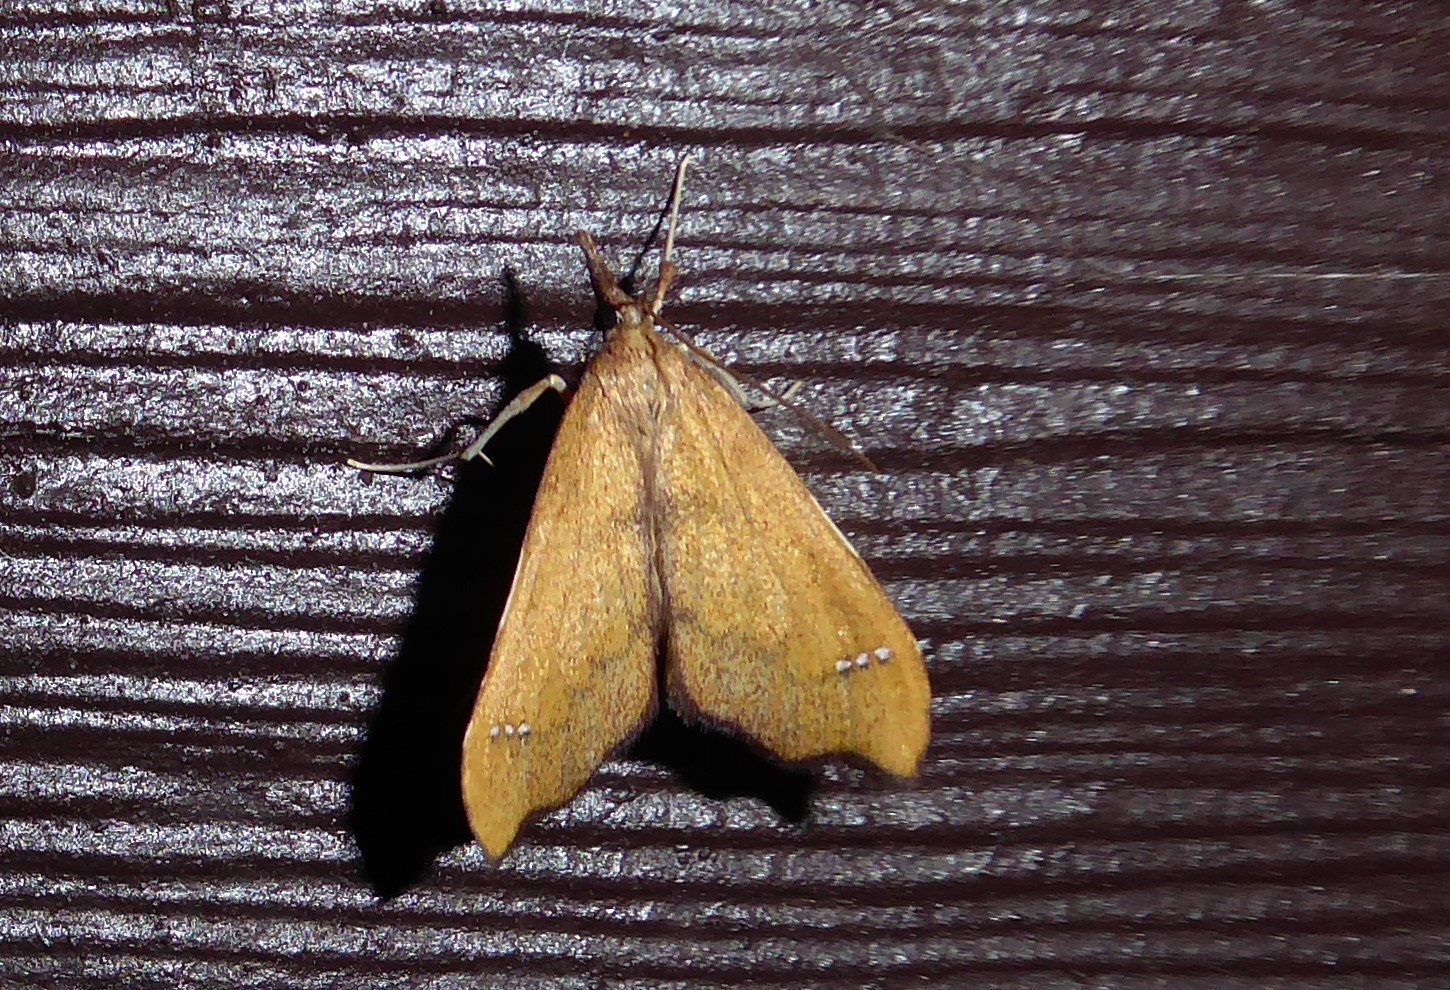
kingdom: Animalia
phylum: Arthropoda
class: Insecta
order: Lepidoptera
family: Crambidae
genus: Deana
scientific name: Deana hybreasalis
